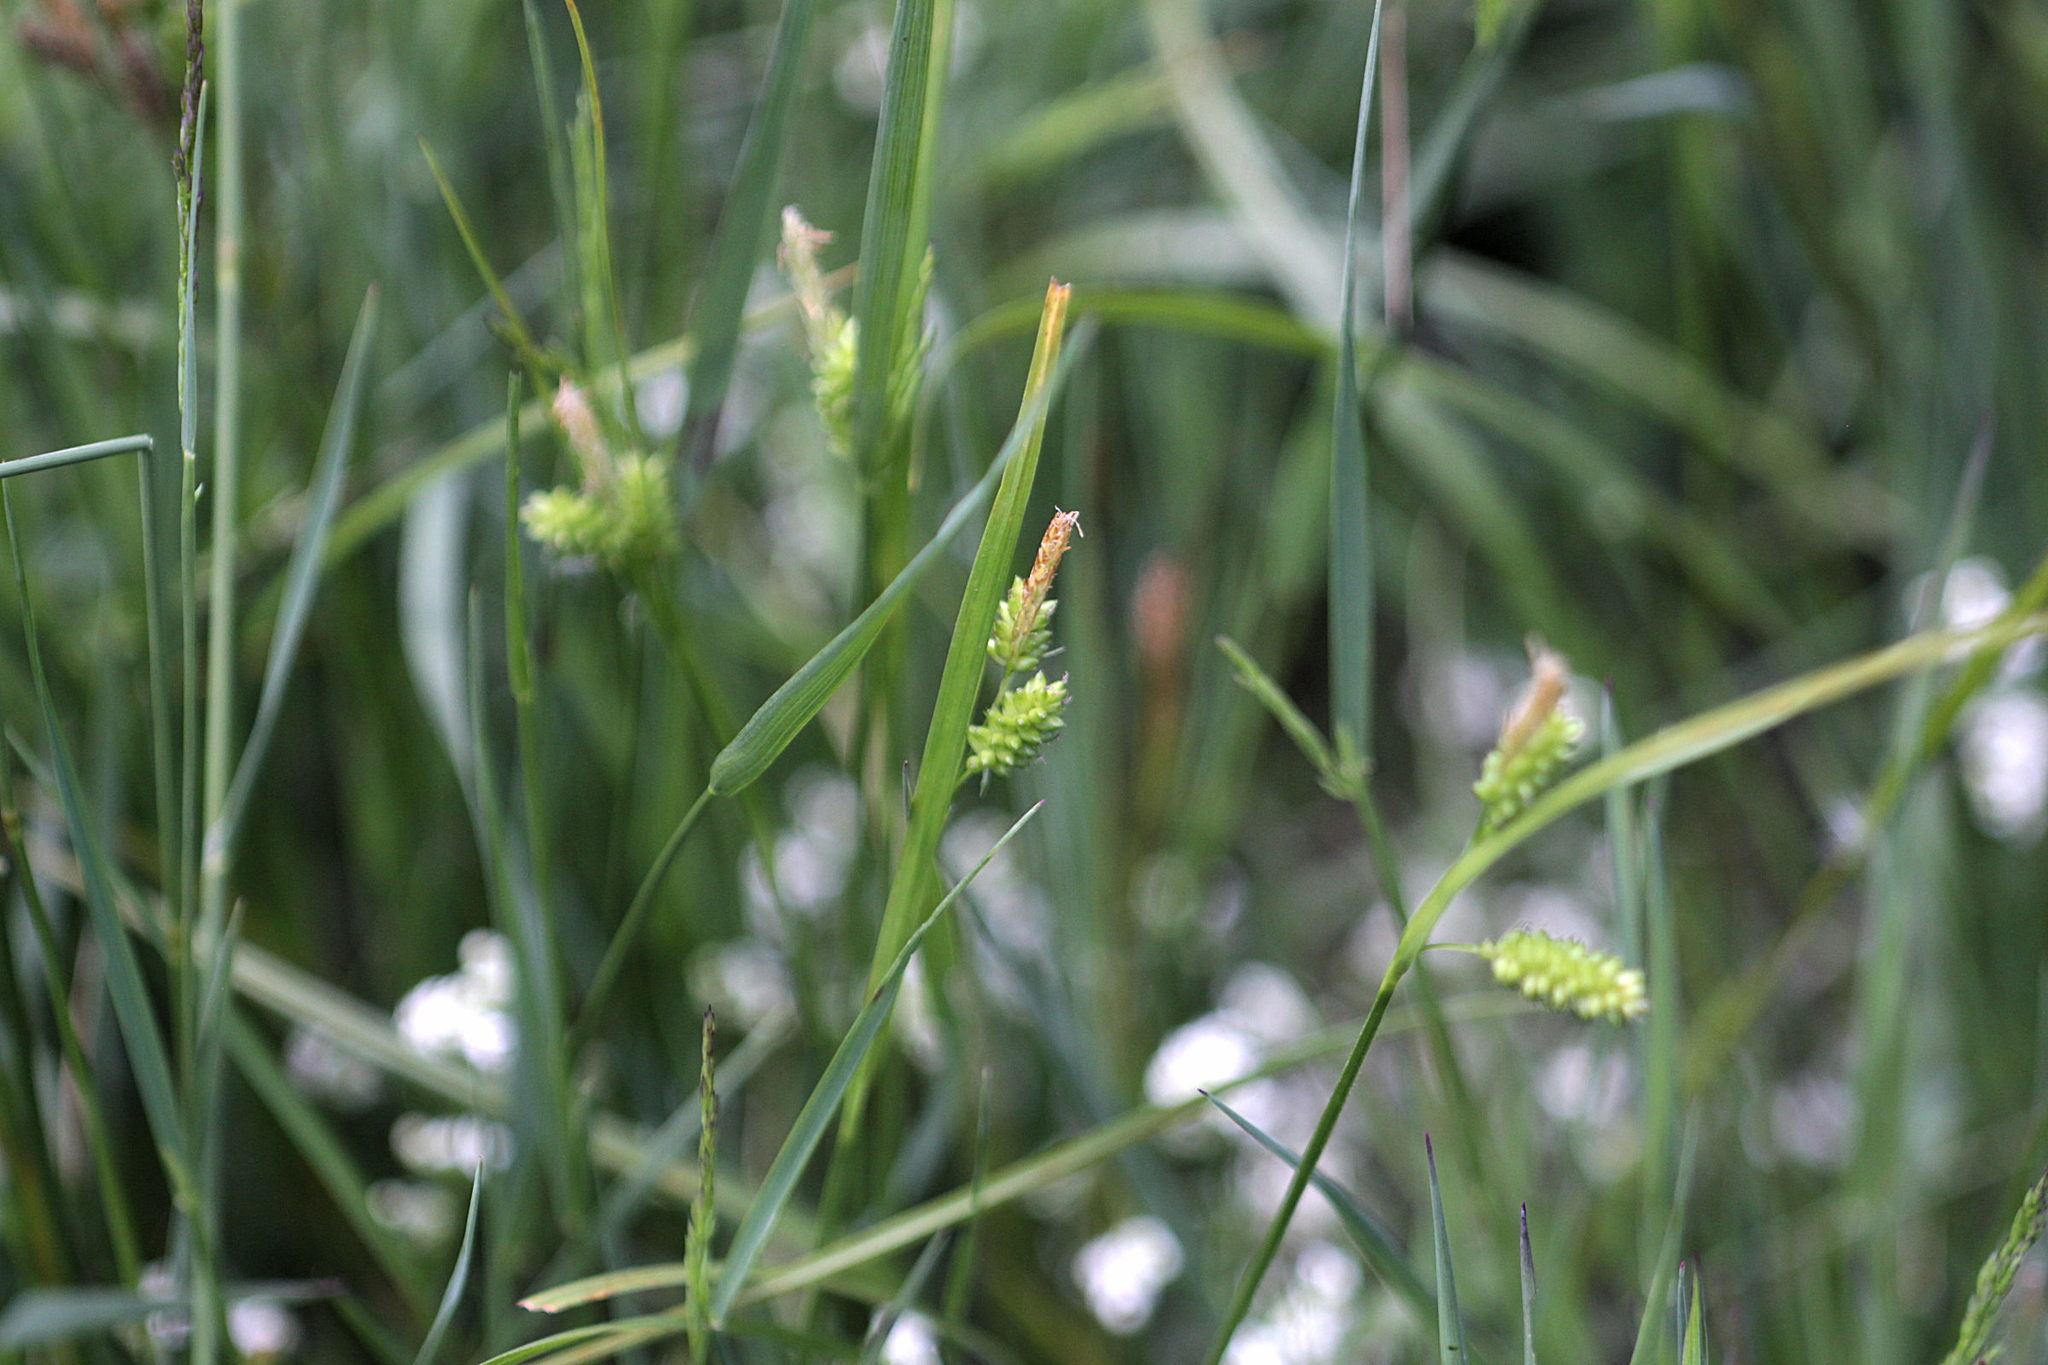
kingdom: Plantae
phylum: Tracheophyta
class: Liliopsida
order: Poales
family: Cyperaceae
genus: Carex
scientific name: Carex pallescens
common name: Pale sedge
